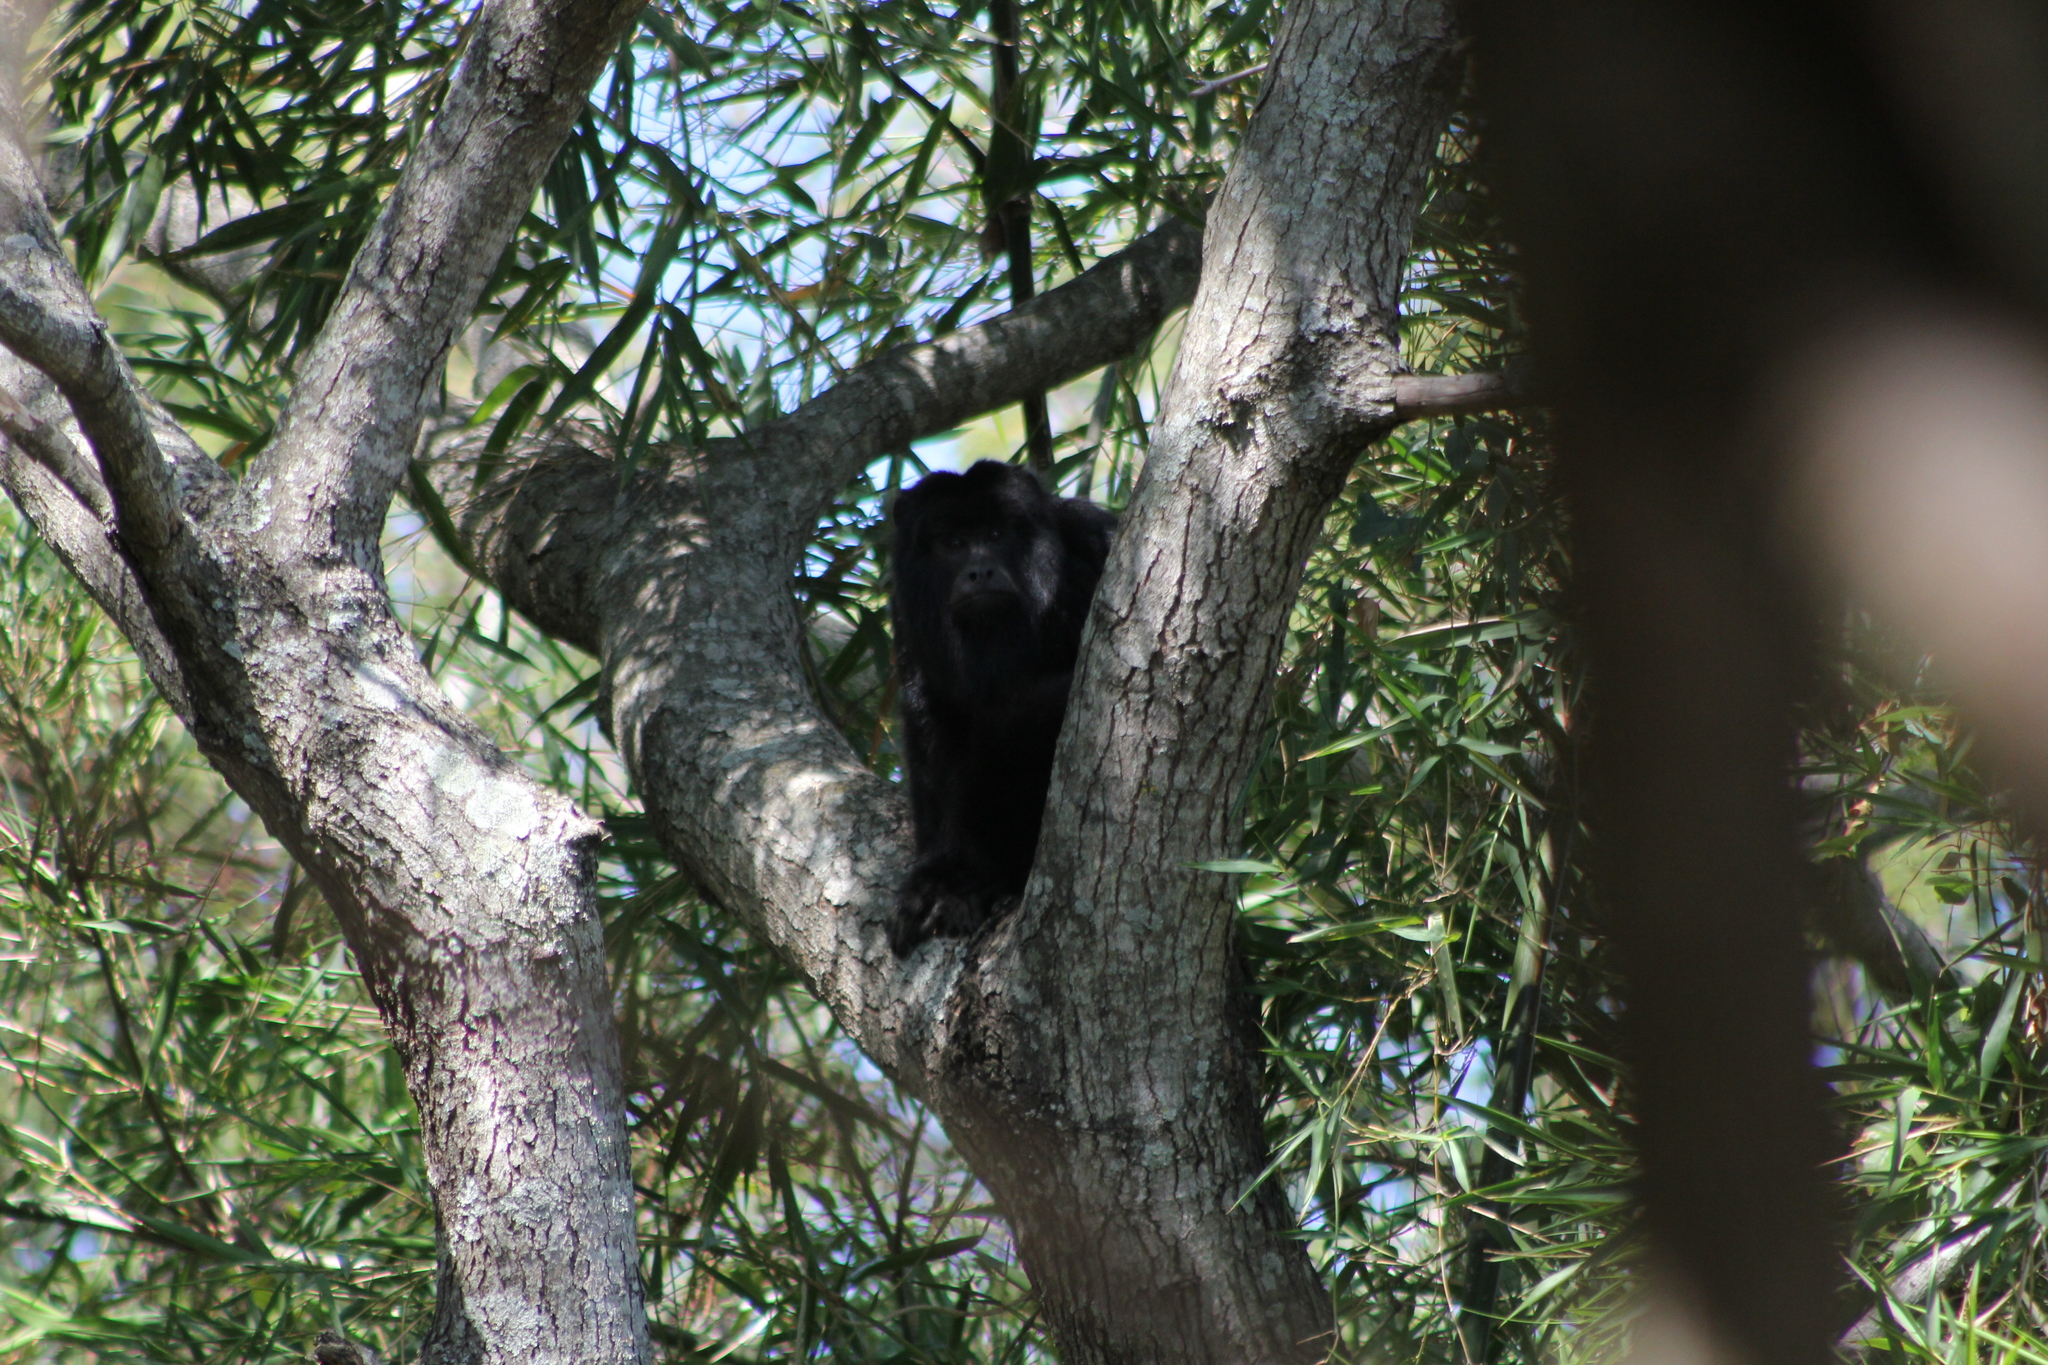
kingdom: Animalia
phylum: Chordata
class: Mammalia
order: Primates
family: Atelidae
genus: Alouatta
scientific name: Alouatta caraya
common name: Black howler
